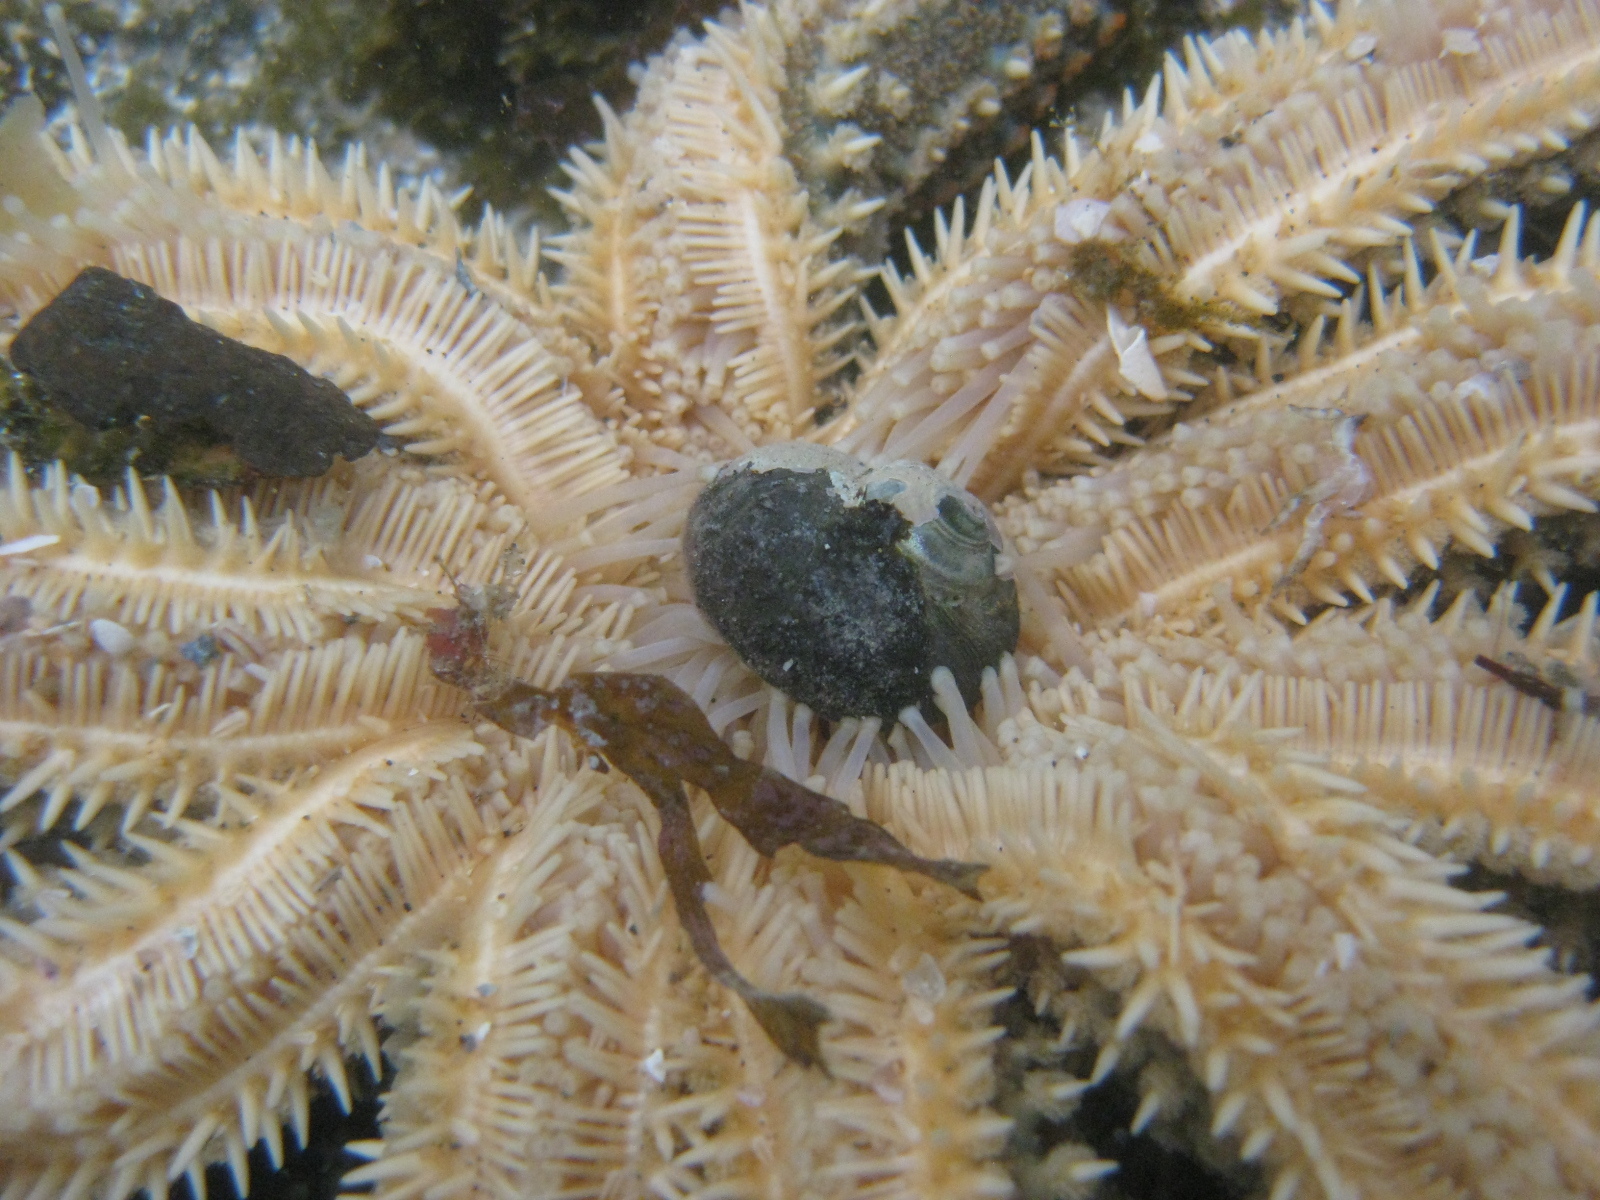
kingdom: Animalia
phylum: Mollusca
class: Gastropoda
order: Trochida
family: Turbinidae
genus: Lunella
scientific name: Lunella smaragda
